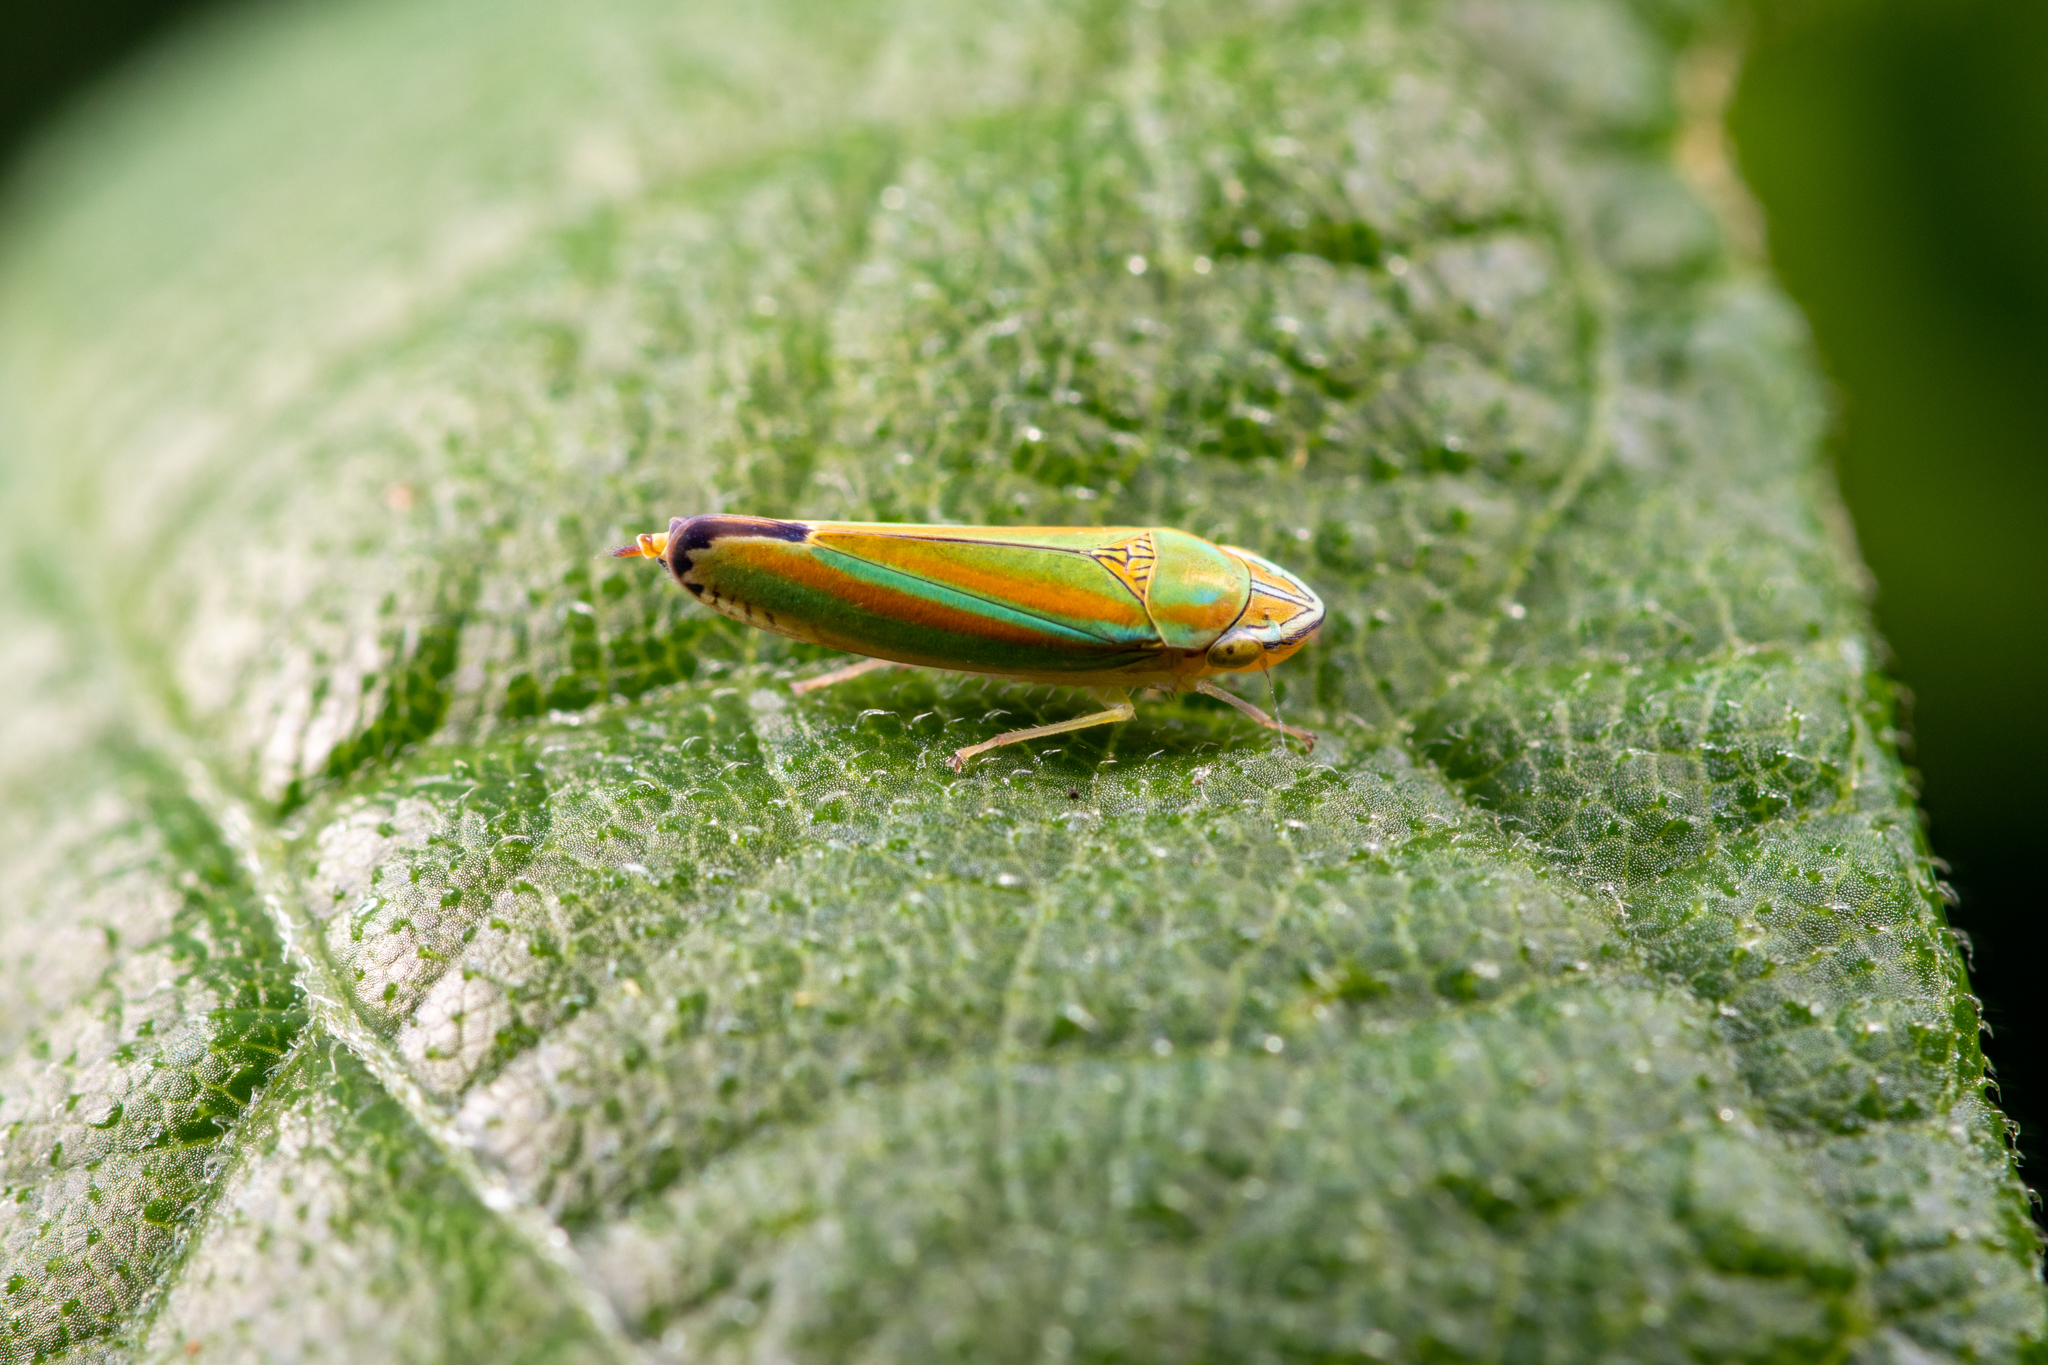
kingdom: Animalia
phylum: Arthropoda
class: Insecta
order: Hemiptera
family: Cicadellidae
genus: Graphocephala
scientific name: Graphocephala versuta
